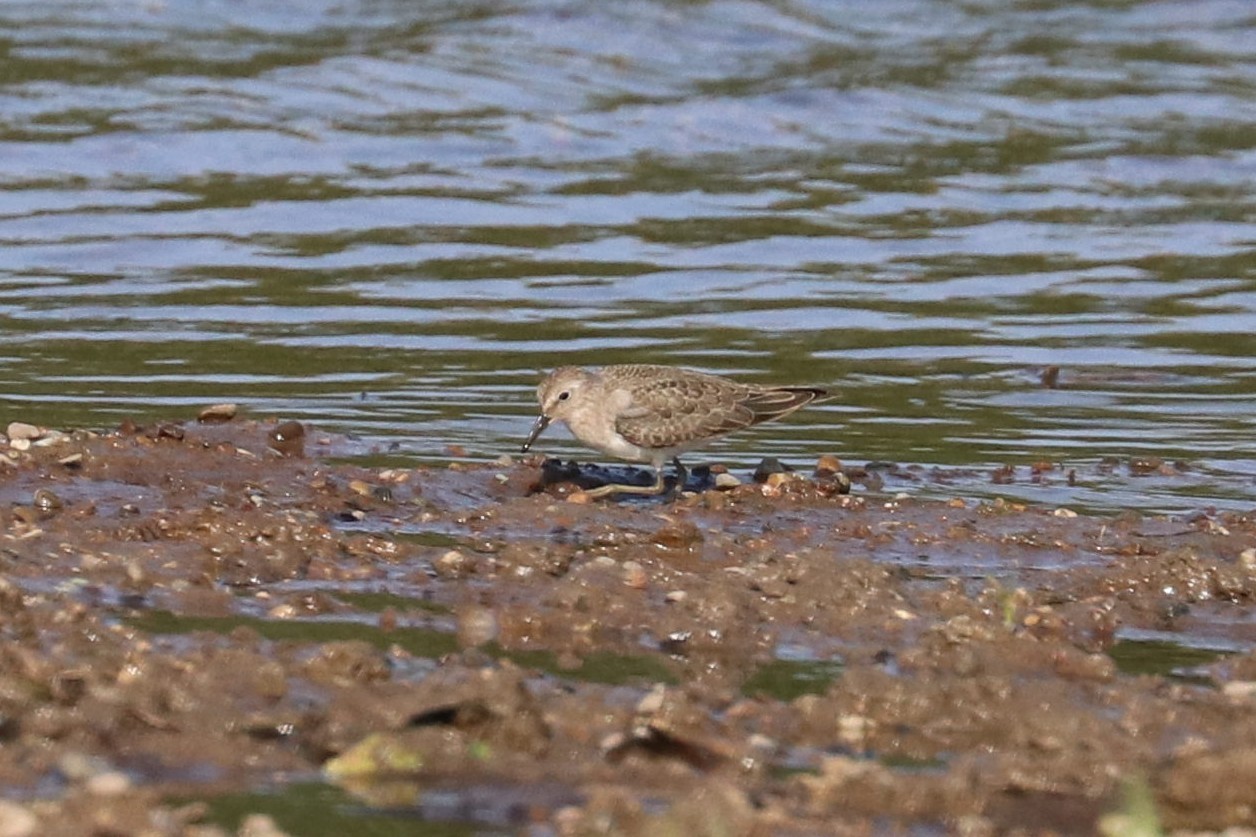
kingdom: Animalia
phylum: Chordata
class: Aves
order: Charadriiformes
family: Scolopacidae
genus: Calidris
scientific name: Calidris temminckii
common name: Temminck's stint
